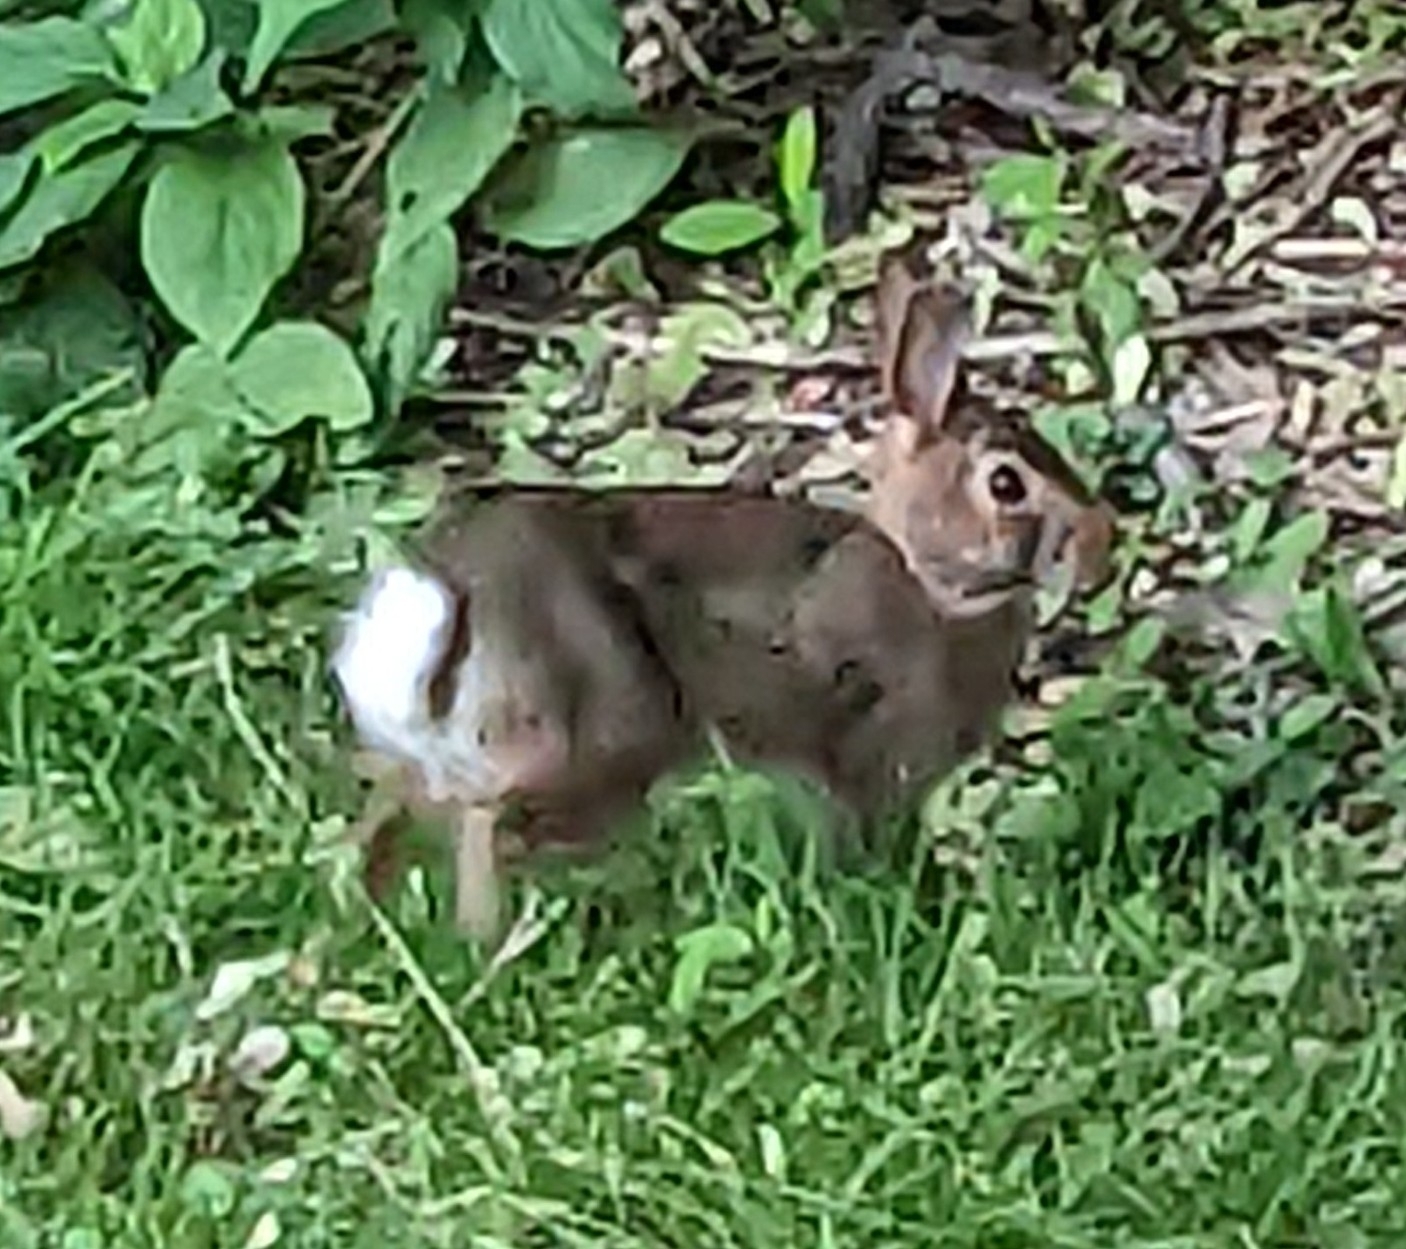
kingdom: Animalia
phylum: Chordata
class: Mammalia
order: Lagomorpha
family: Leporidae
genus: Sylvilagus
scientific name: Sylvilagus floridanus
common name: Eastern cottontail
